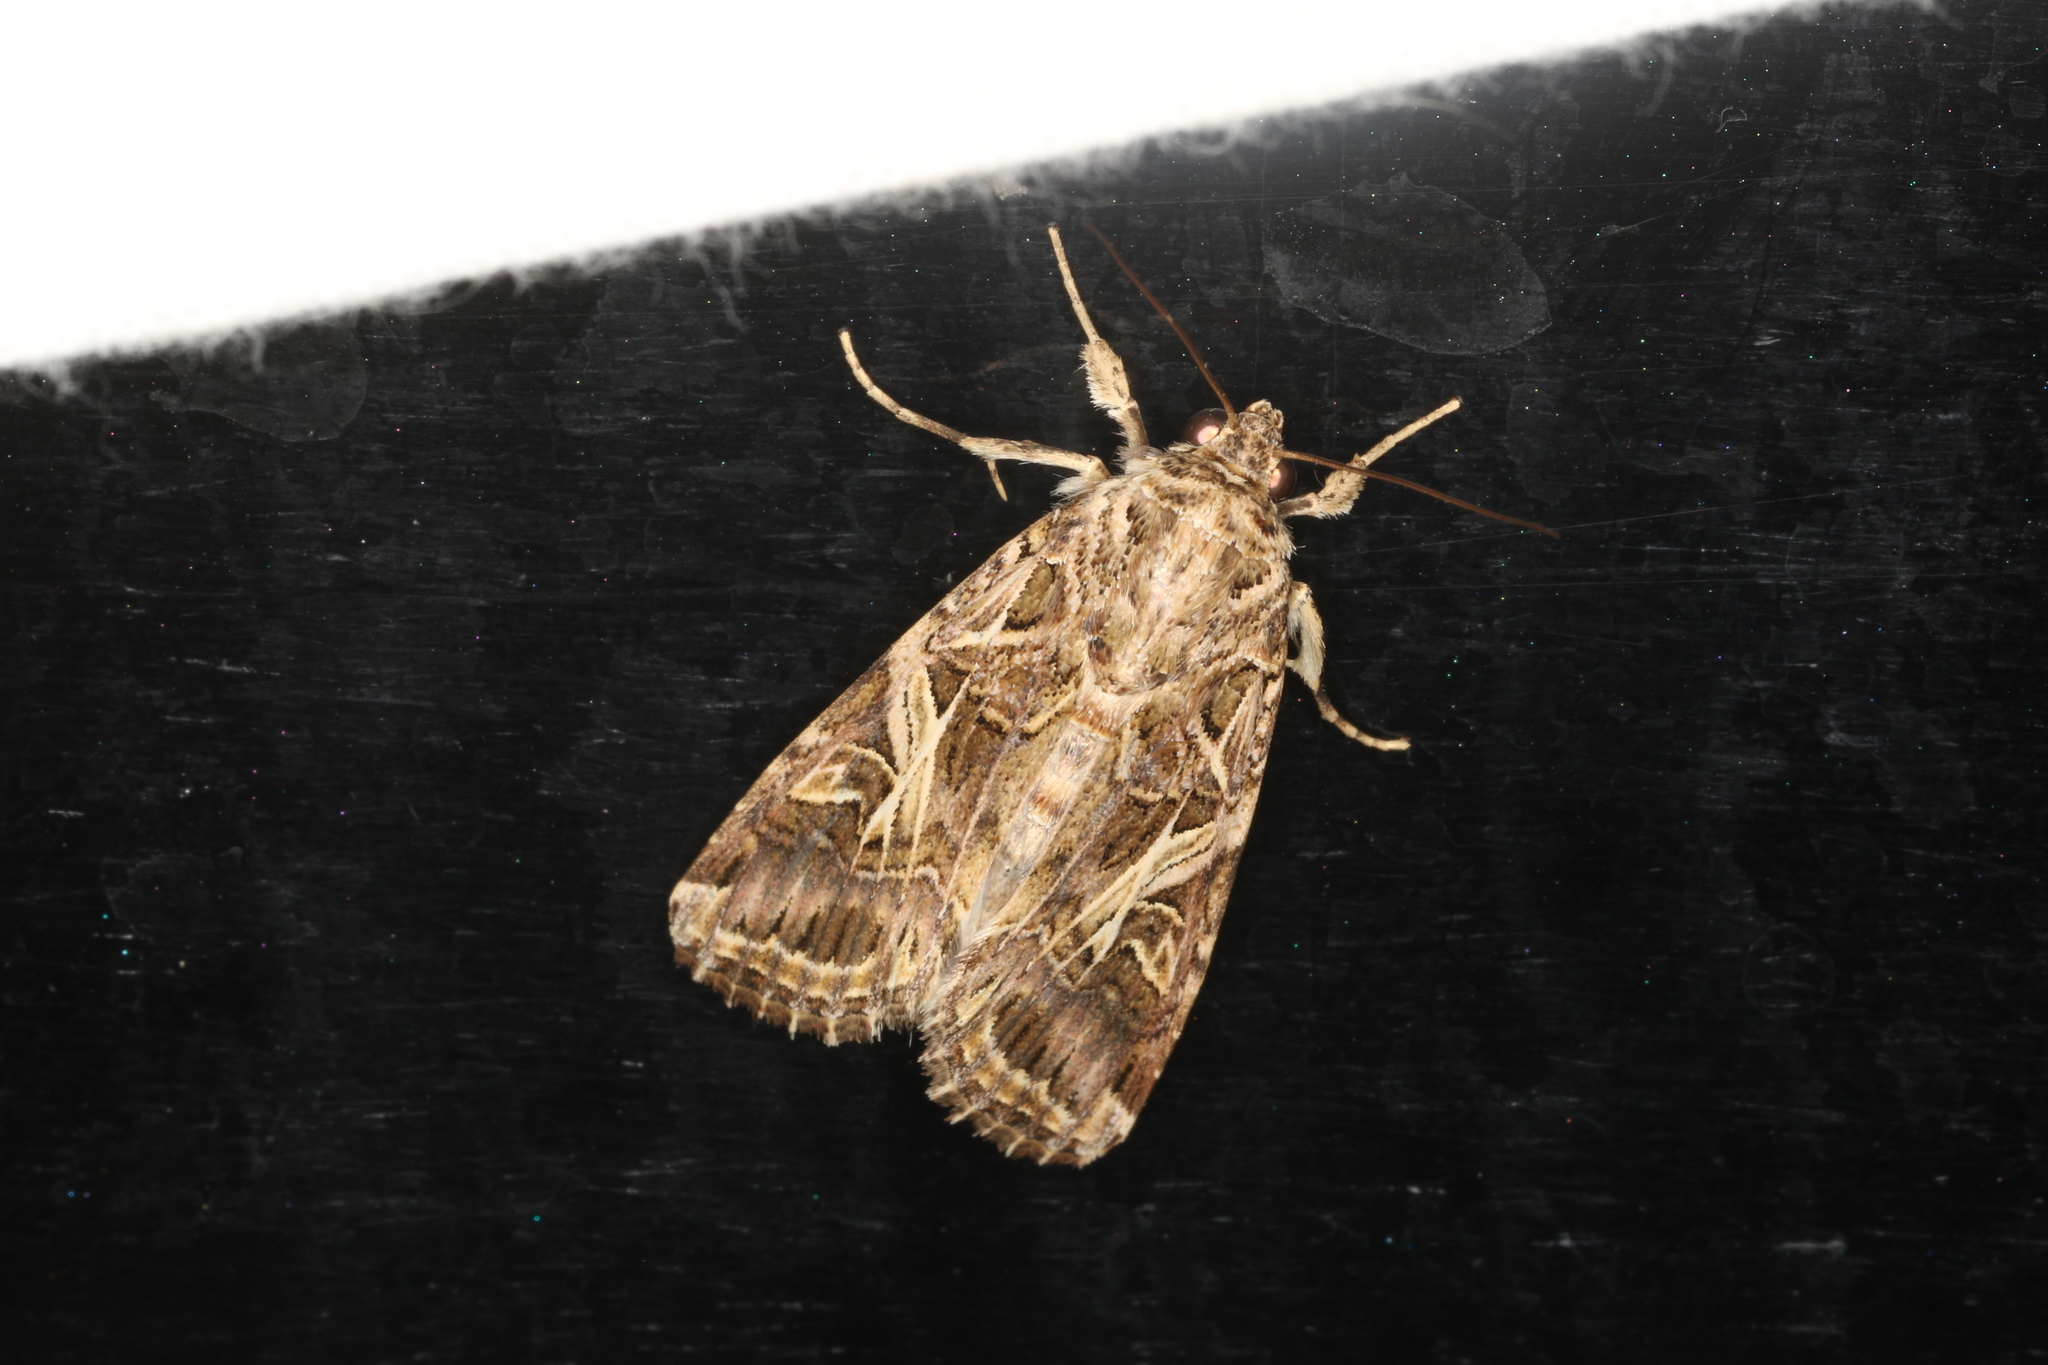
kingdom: Animalia
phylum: Arthropoda
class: Insecta
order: Lepidoptera
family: Noctuidae
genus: Spodoptera
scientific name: Spodoptera litura
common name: Asian cotton leafworm
